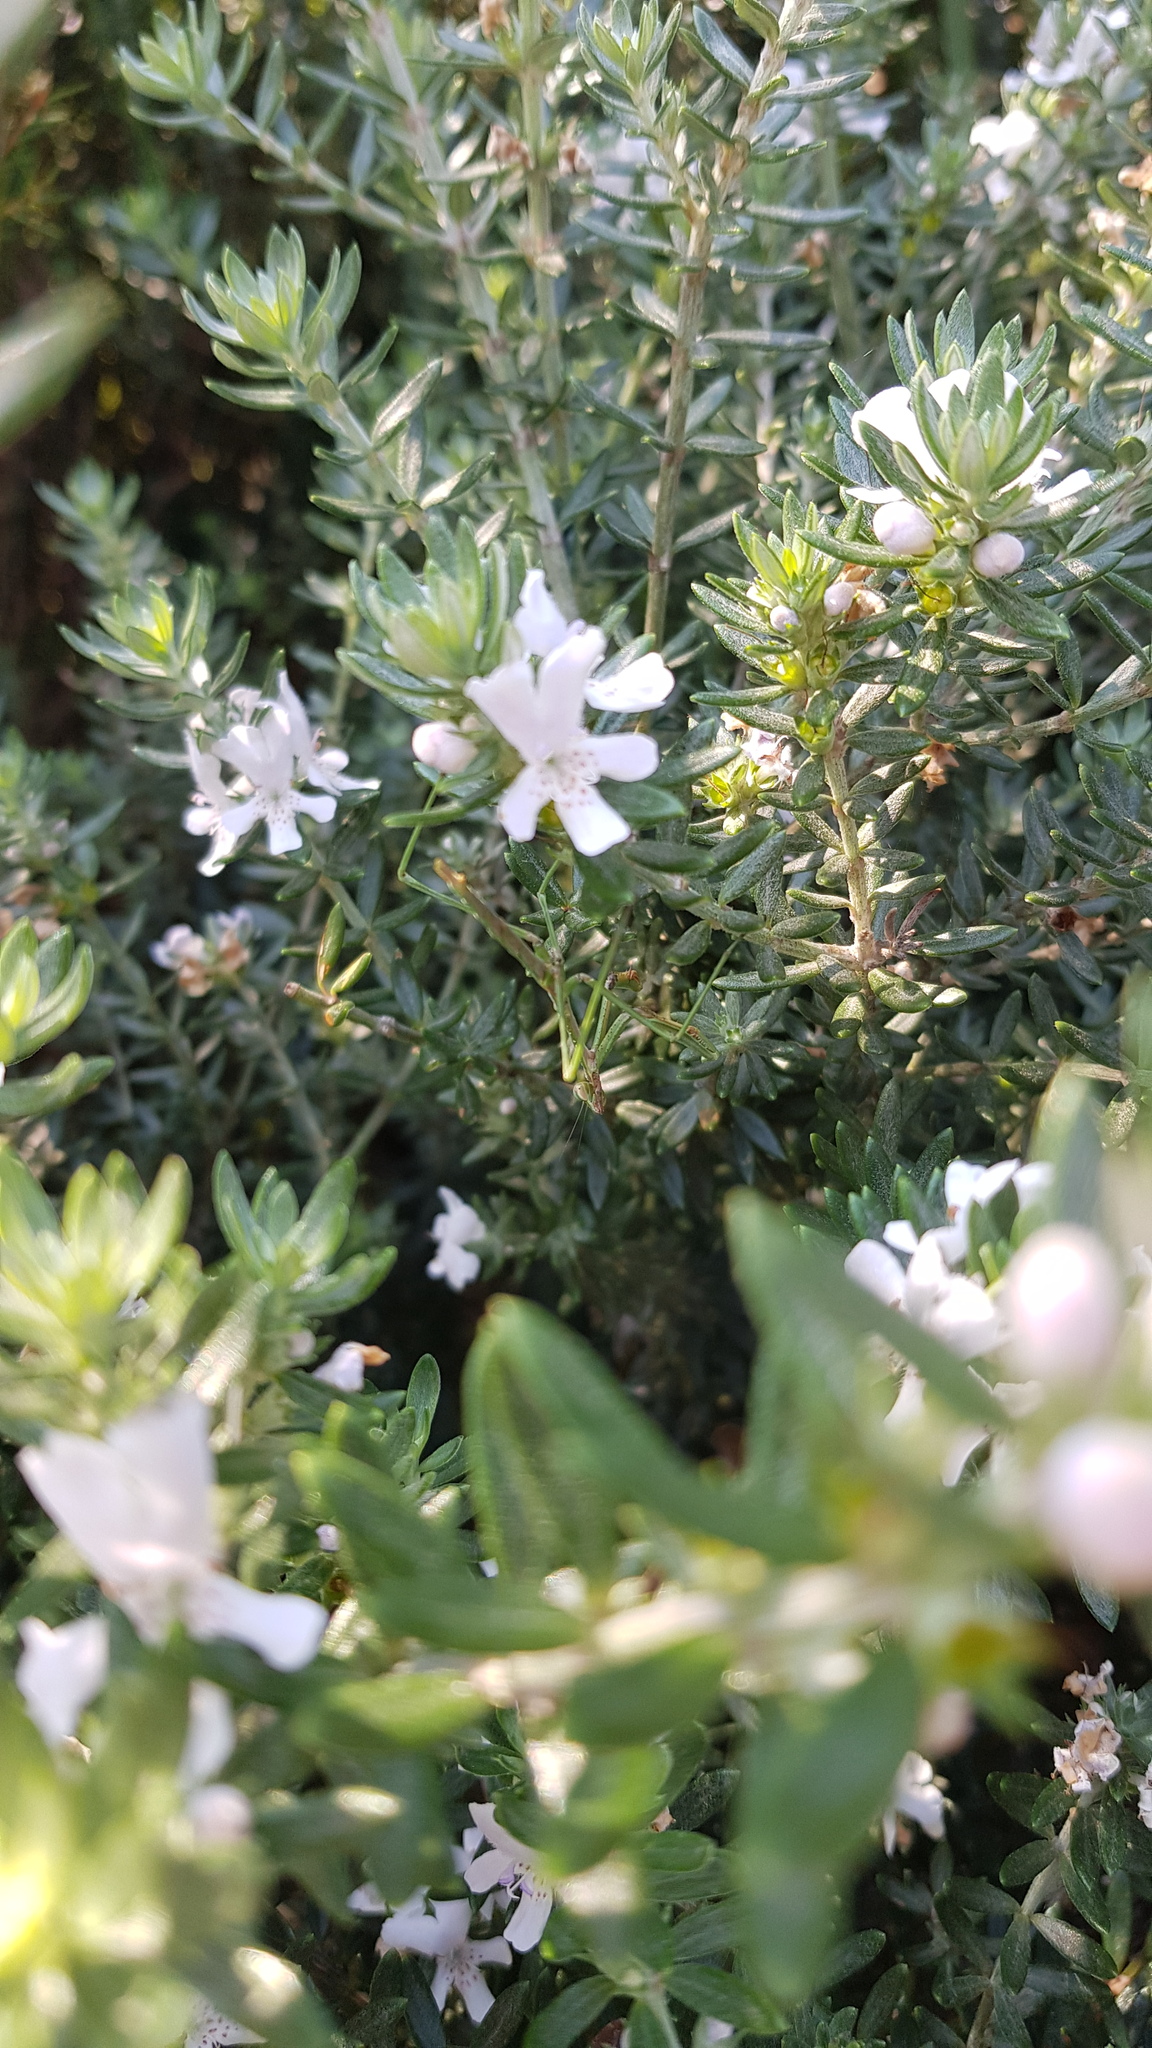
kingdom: Animalia
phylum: Arthropoda
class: Insecta
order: Mantodea
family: Mantidae
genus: Archimantis
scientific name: Archimantis latistyla
